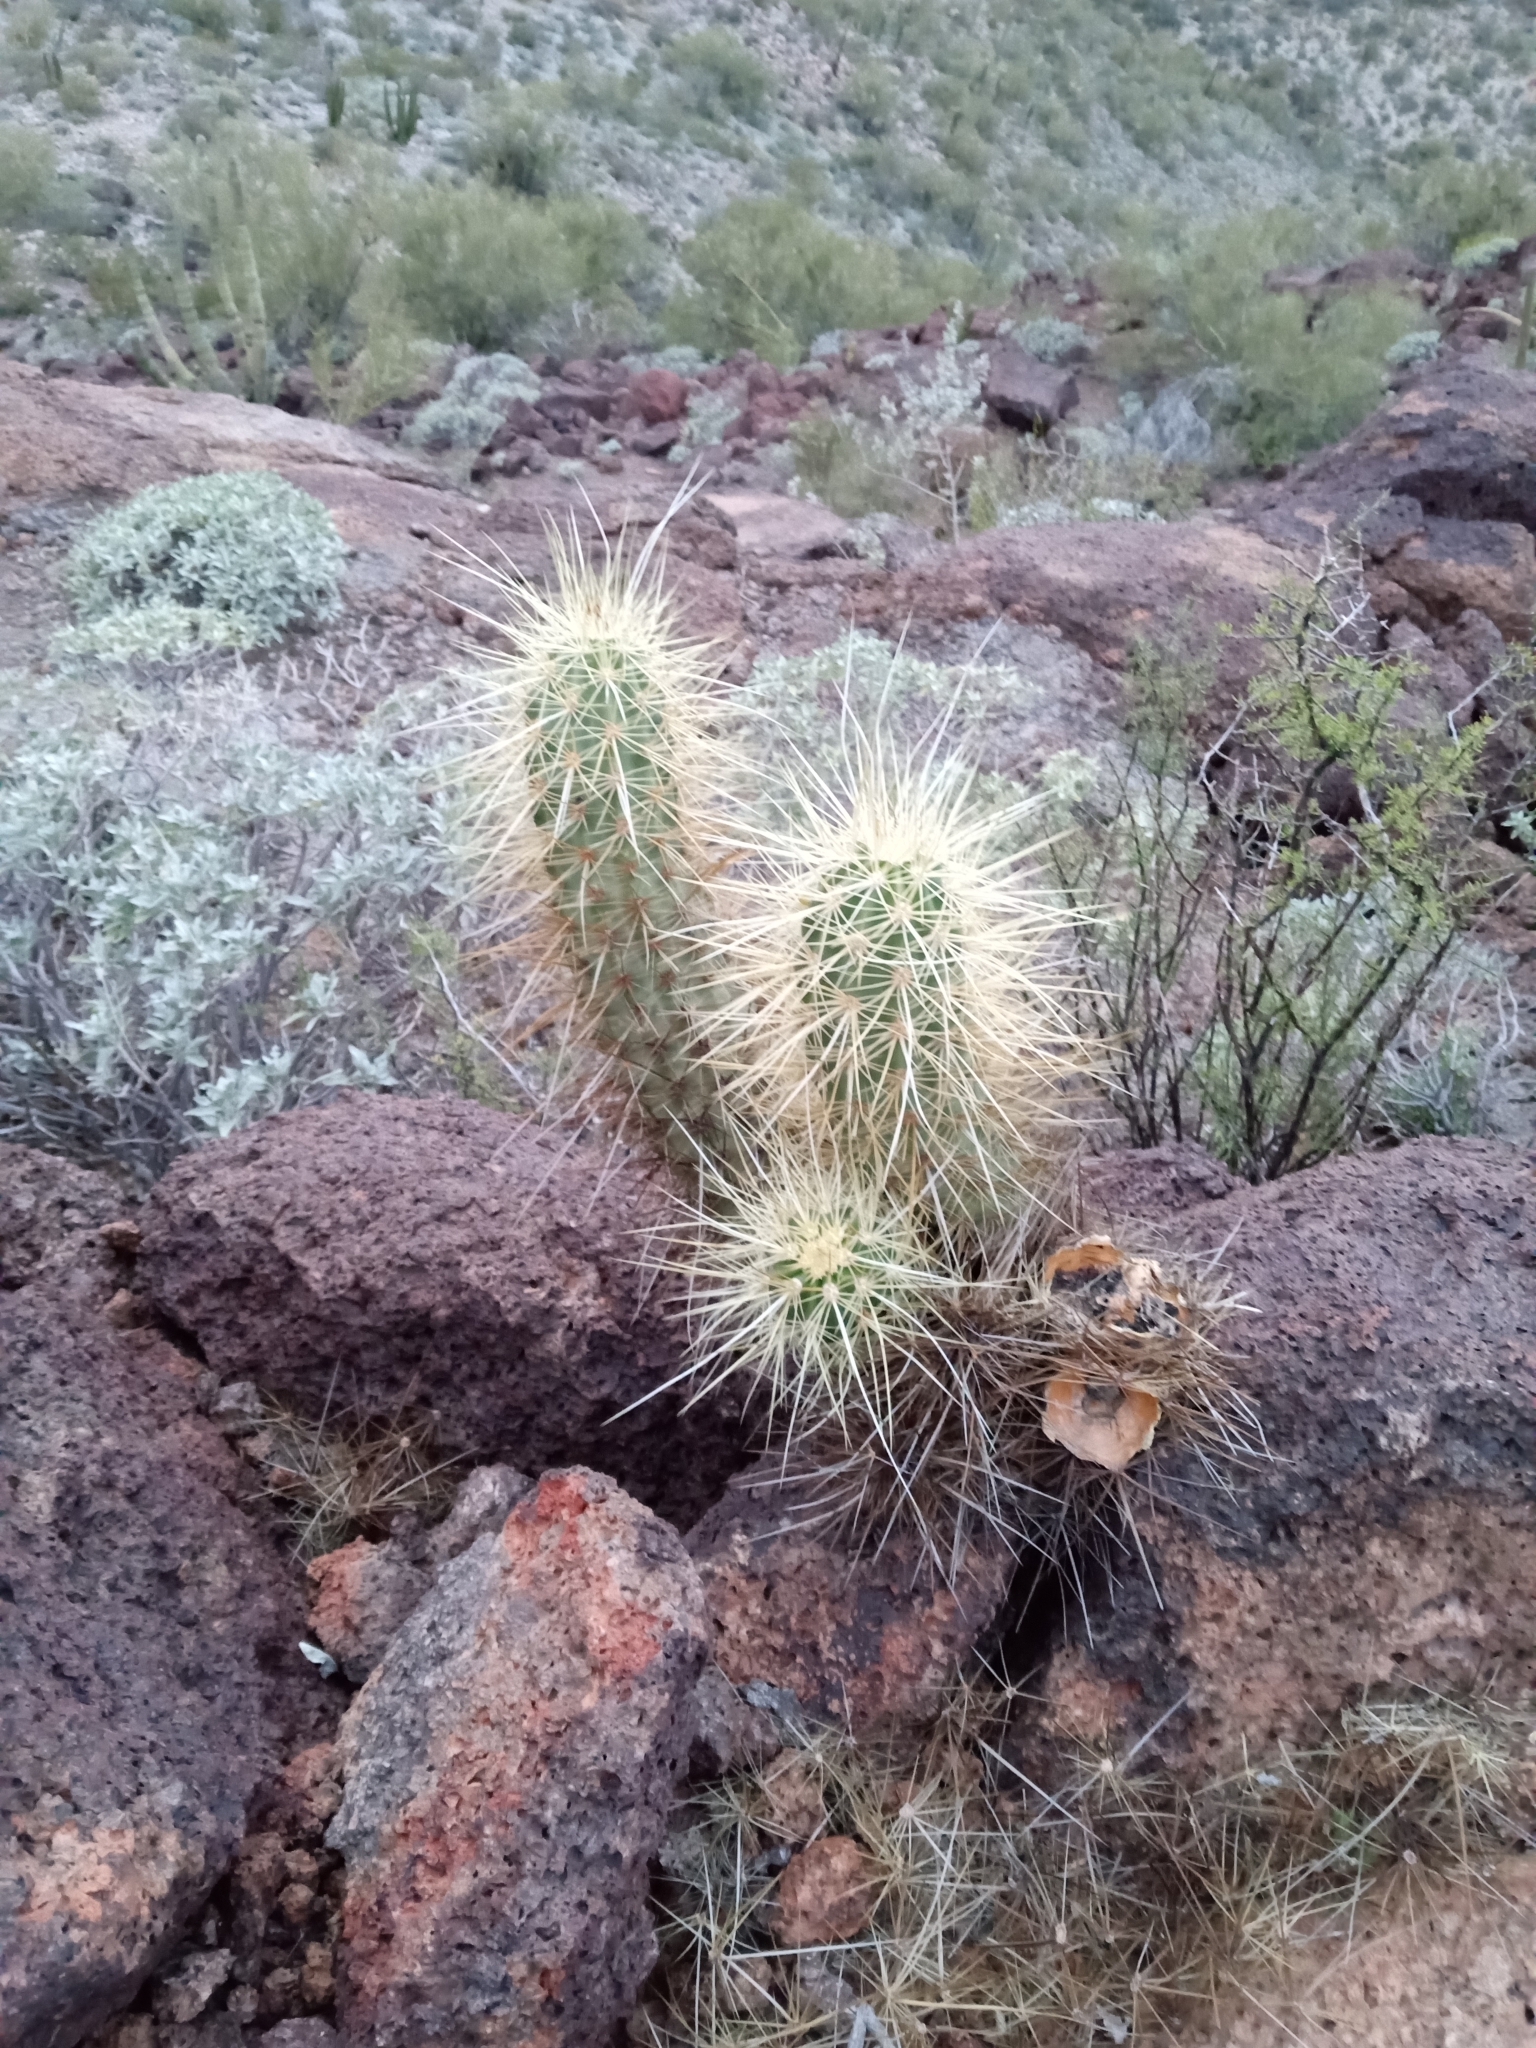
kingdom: Plantae
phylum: Tracheophyta
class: Magnoliopsida
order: Caryophyllales
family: Cactaceae
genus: Echinocereus
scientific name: Echinocereus nicholii
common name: Nichol's hedgehog cactus
